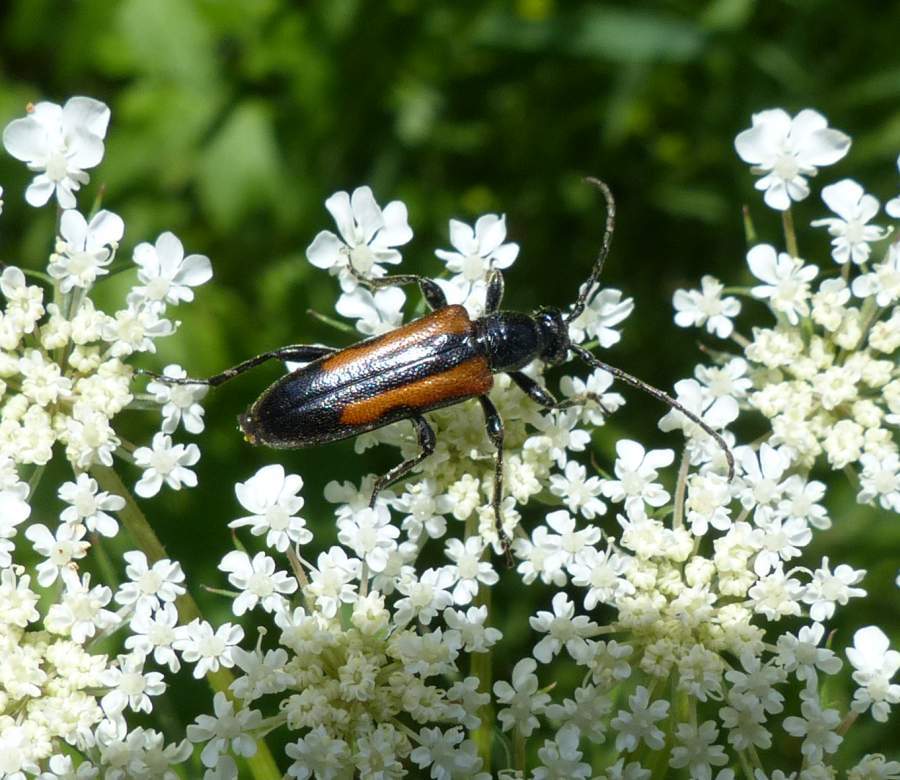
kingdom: Animalia
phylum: Arthropoda
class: Insecta
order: Coleoptera
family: Cerambycidae
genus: Strangalepta
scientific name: Strangalepta abbreviata
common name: Strangalepta flower longhorn beetle
